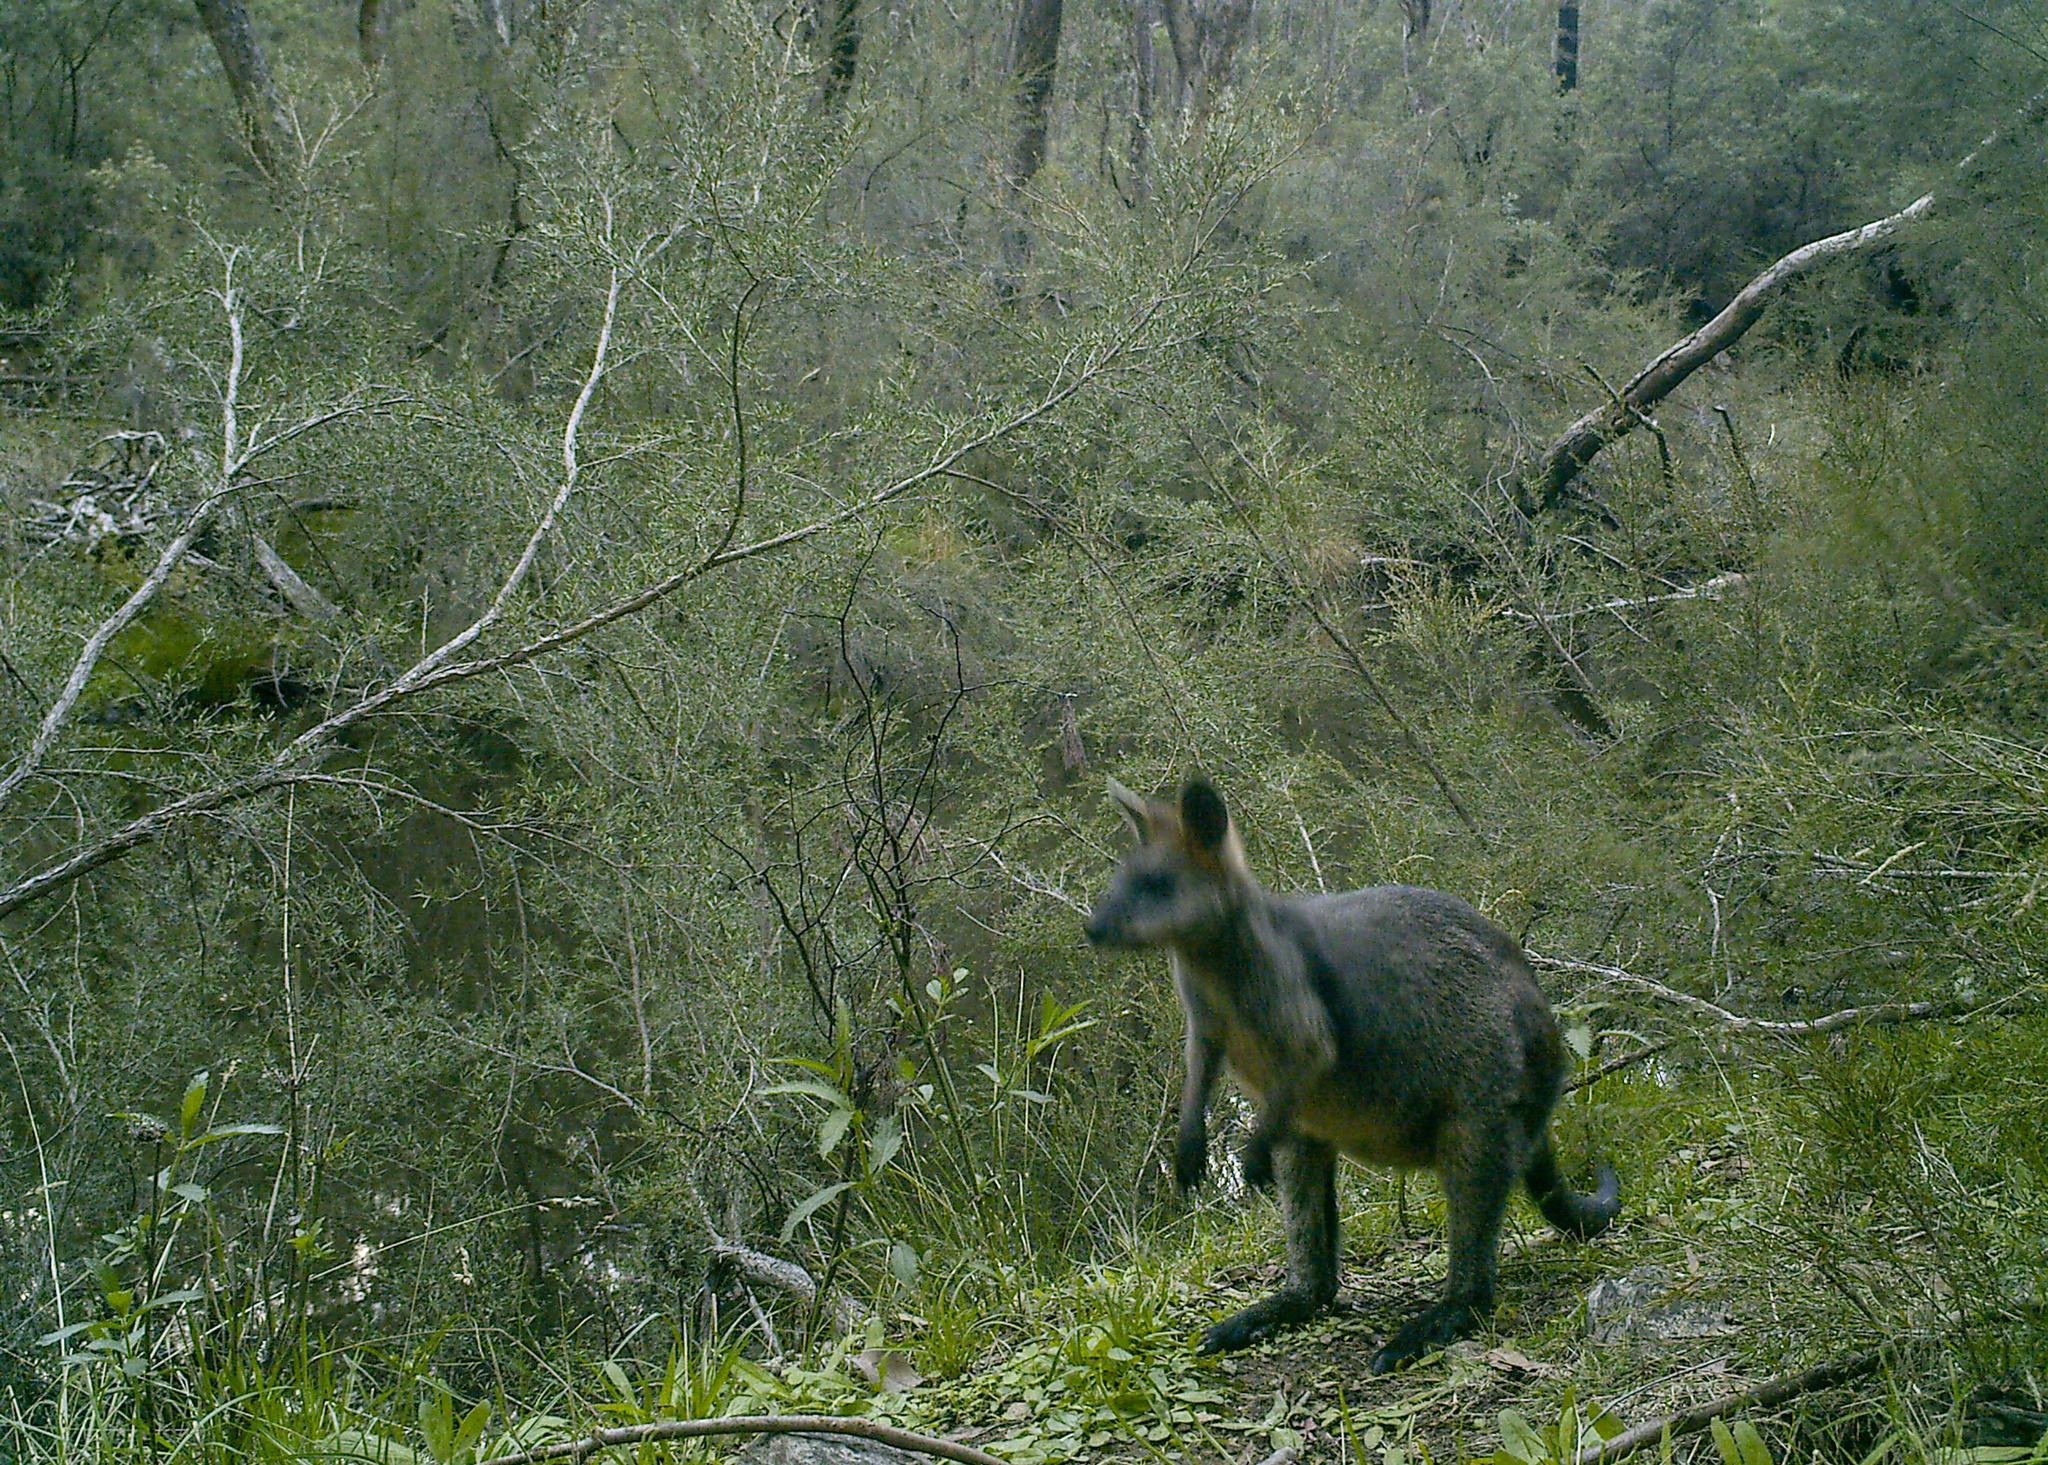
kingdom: Animalia
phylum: Chordata
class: Mammalia
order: Diprotodontia
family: Macropodidae
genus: Wallabia
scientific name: Wallabia bicolor
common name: Swamp wallaby
